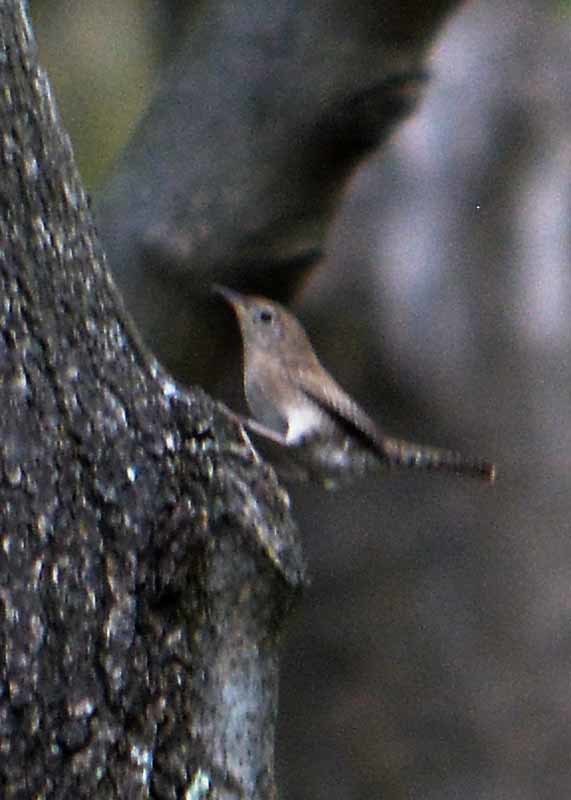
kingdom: Animalia
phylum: Chordata
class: Aves
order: Passeriformes
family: Troglodytidae
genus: Troglodytes
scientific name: Troglodytes aedon
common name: House wren
